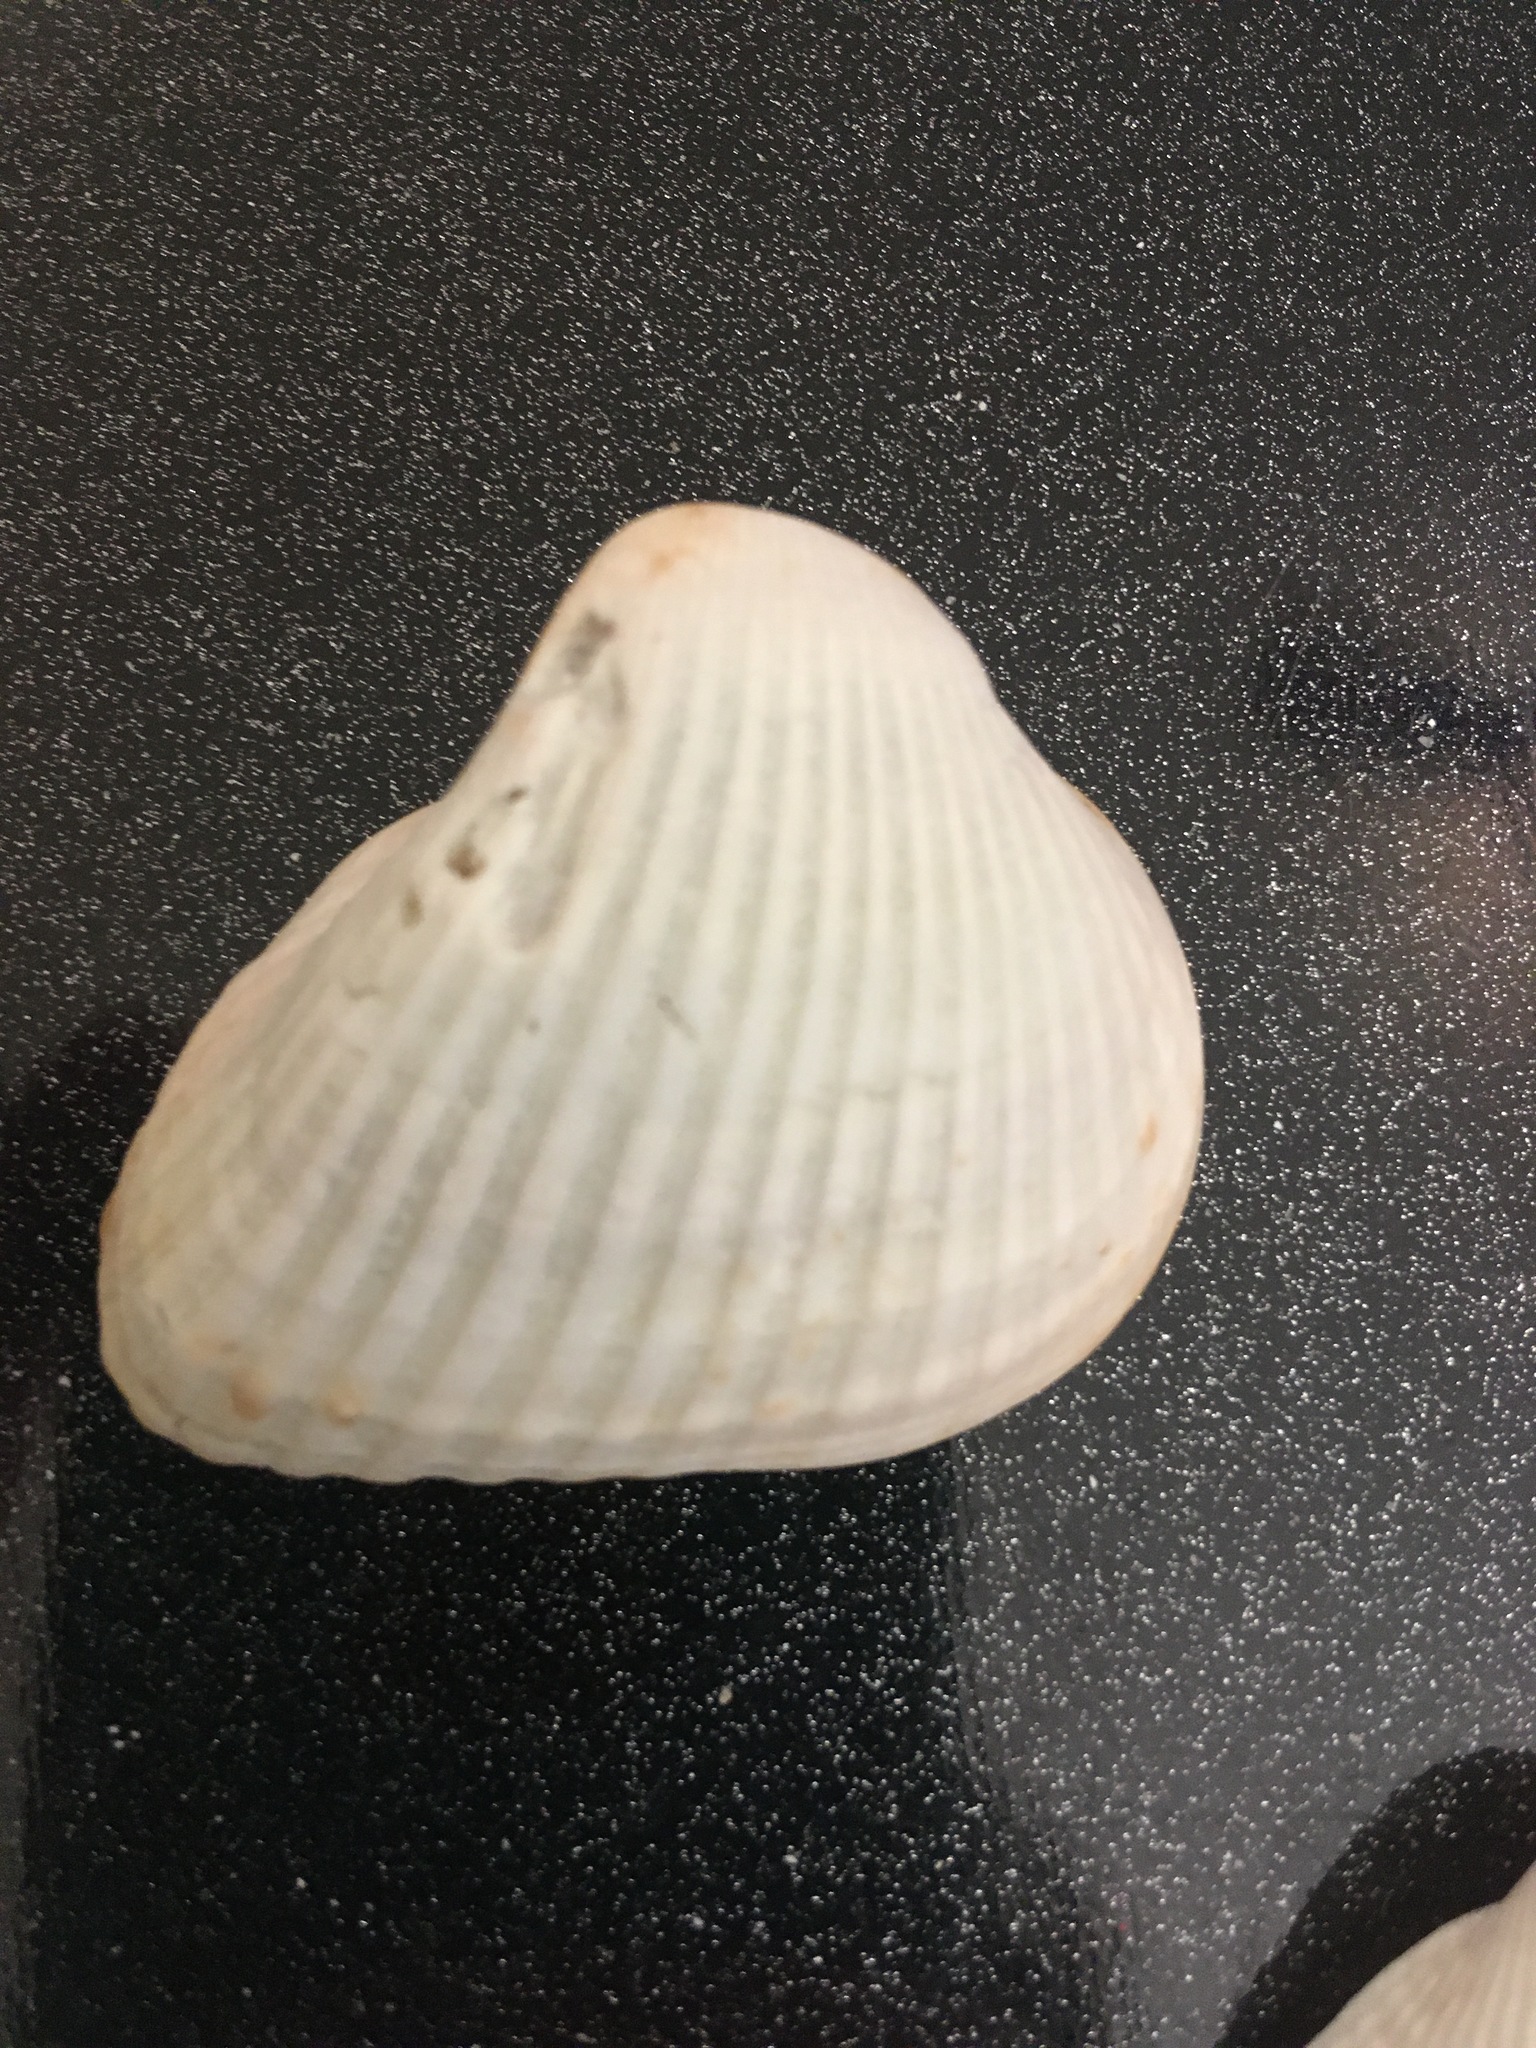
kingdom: Animalia
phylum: Mollusca
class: Bivalvia
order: Arcida
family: Noetiidae
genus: Noetia
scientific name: Noetia ponderosa
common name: Ponderous ark
